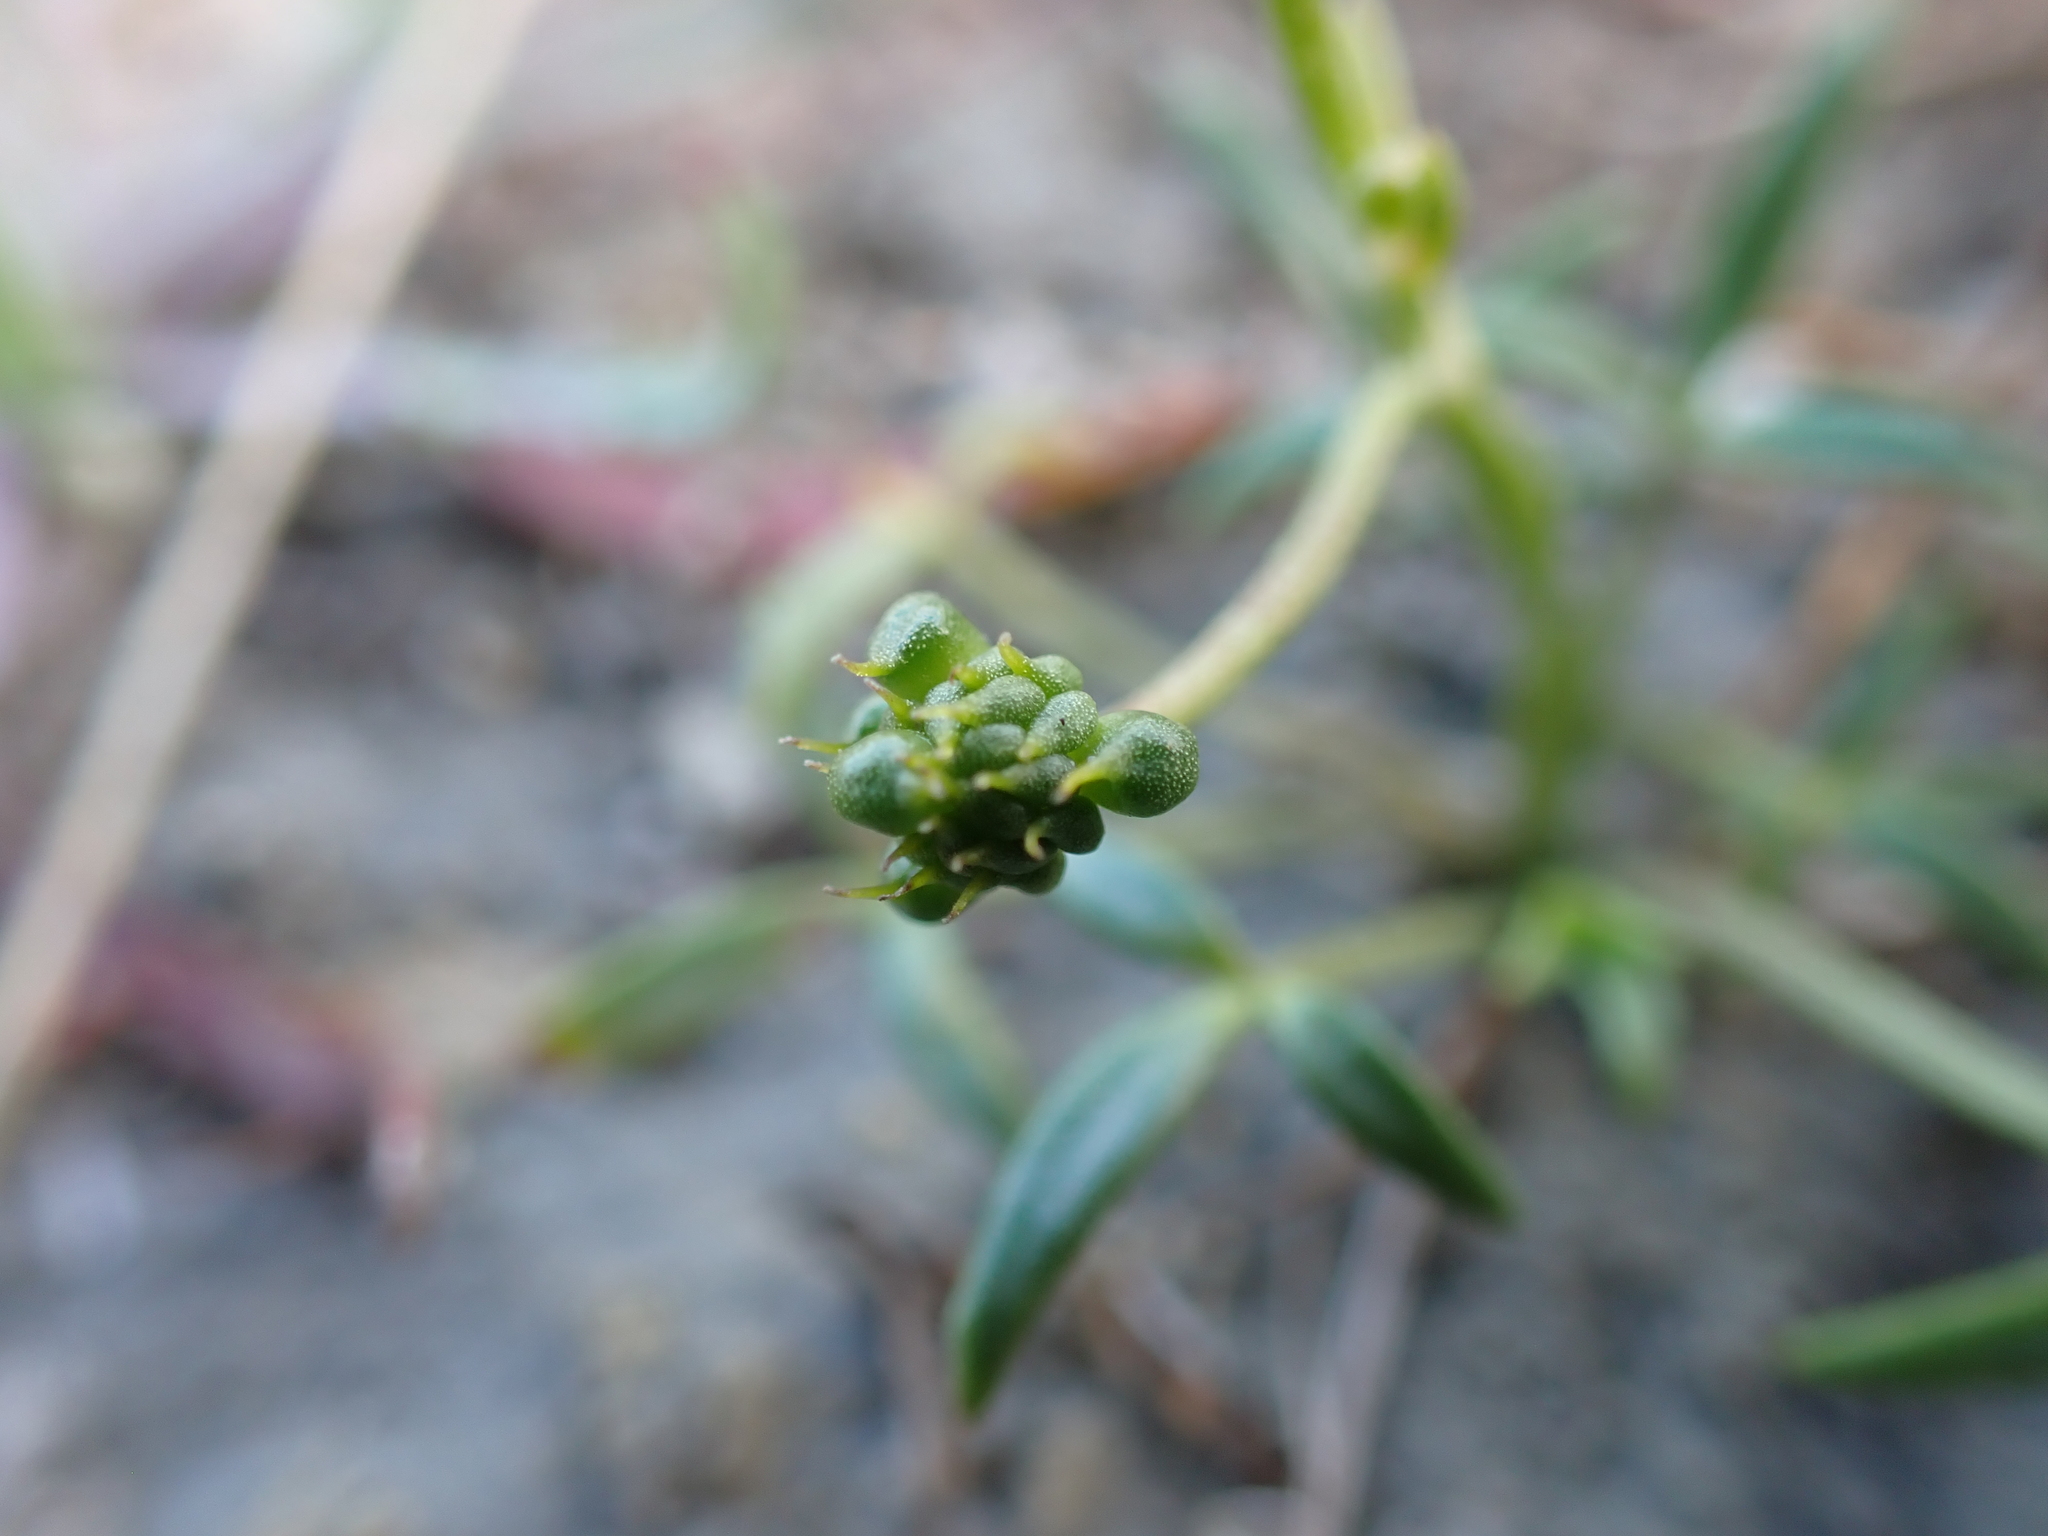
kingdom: Plantae
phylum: Tracheophyta
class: Magnoliopsida
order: Ranunculales
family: Ranunculaceae
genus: Ranunculus
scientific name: Ranunculus diminutus
